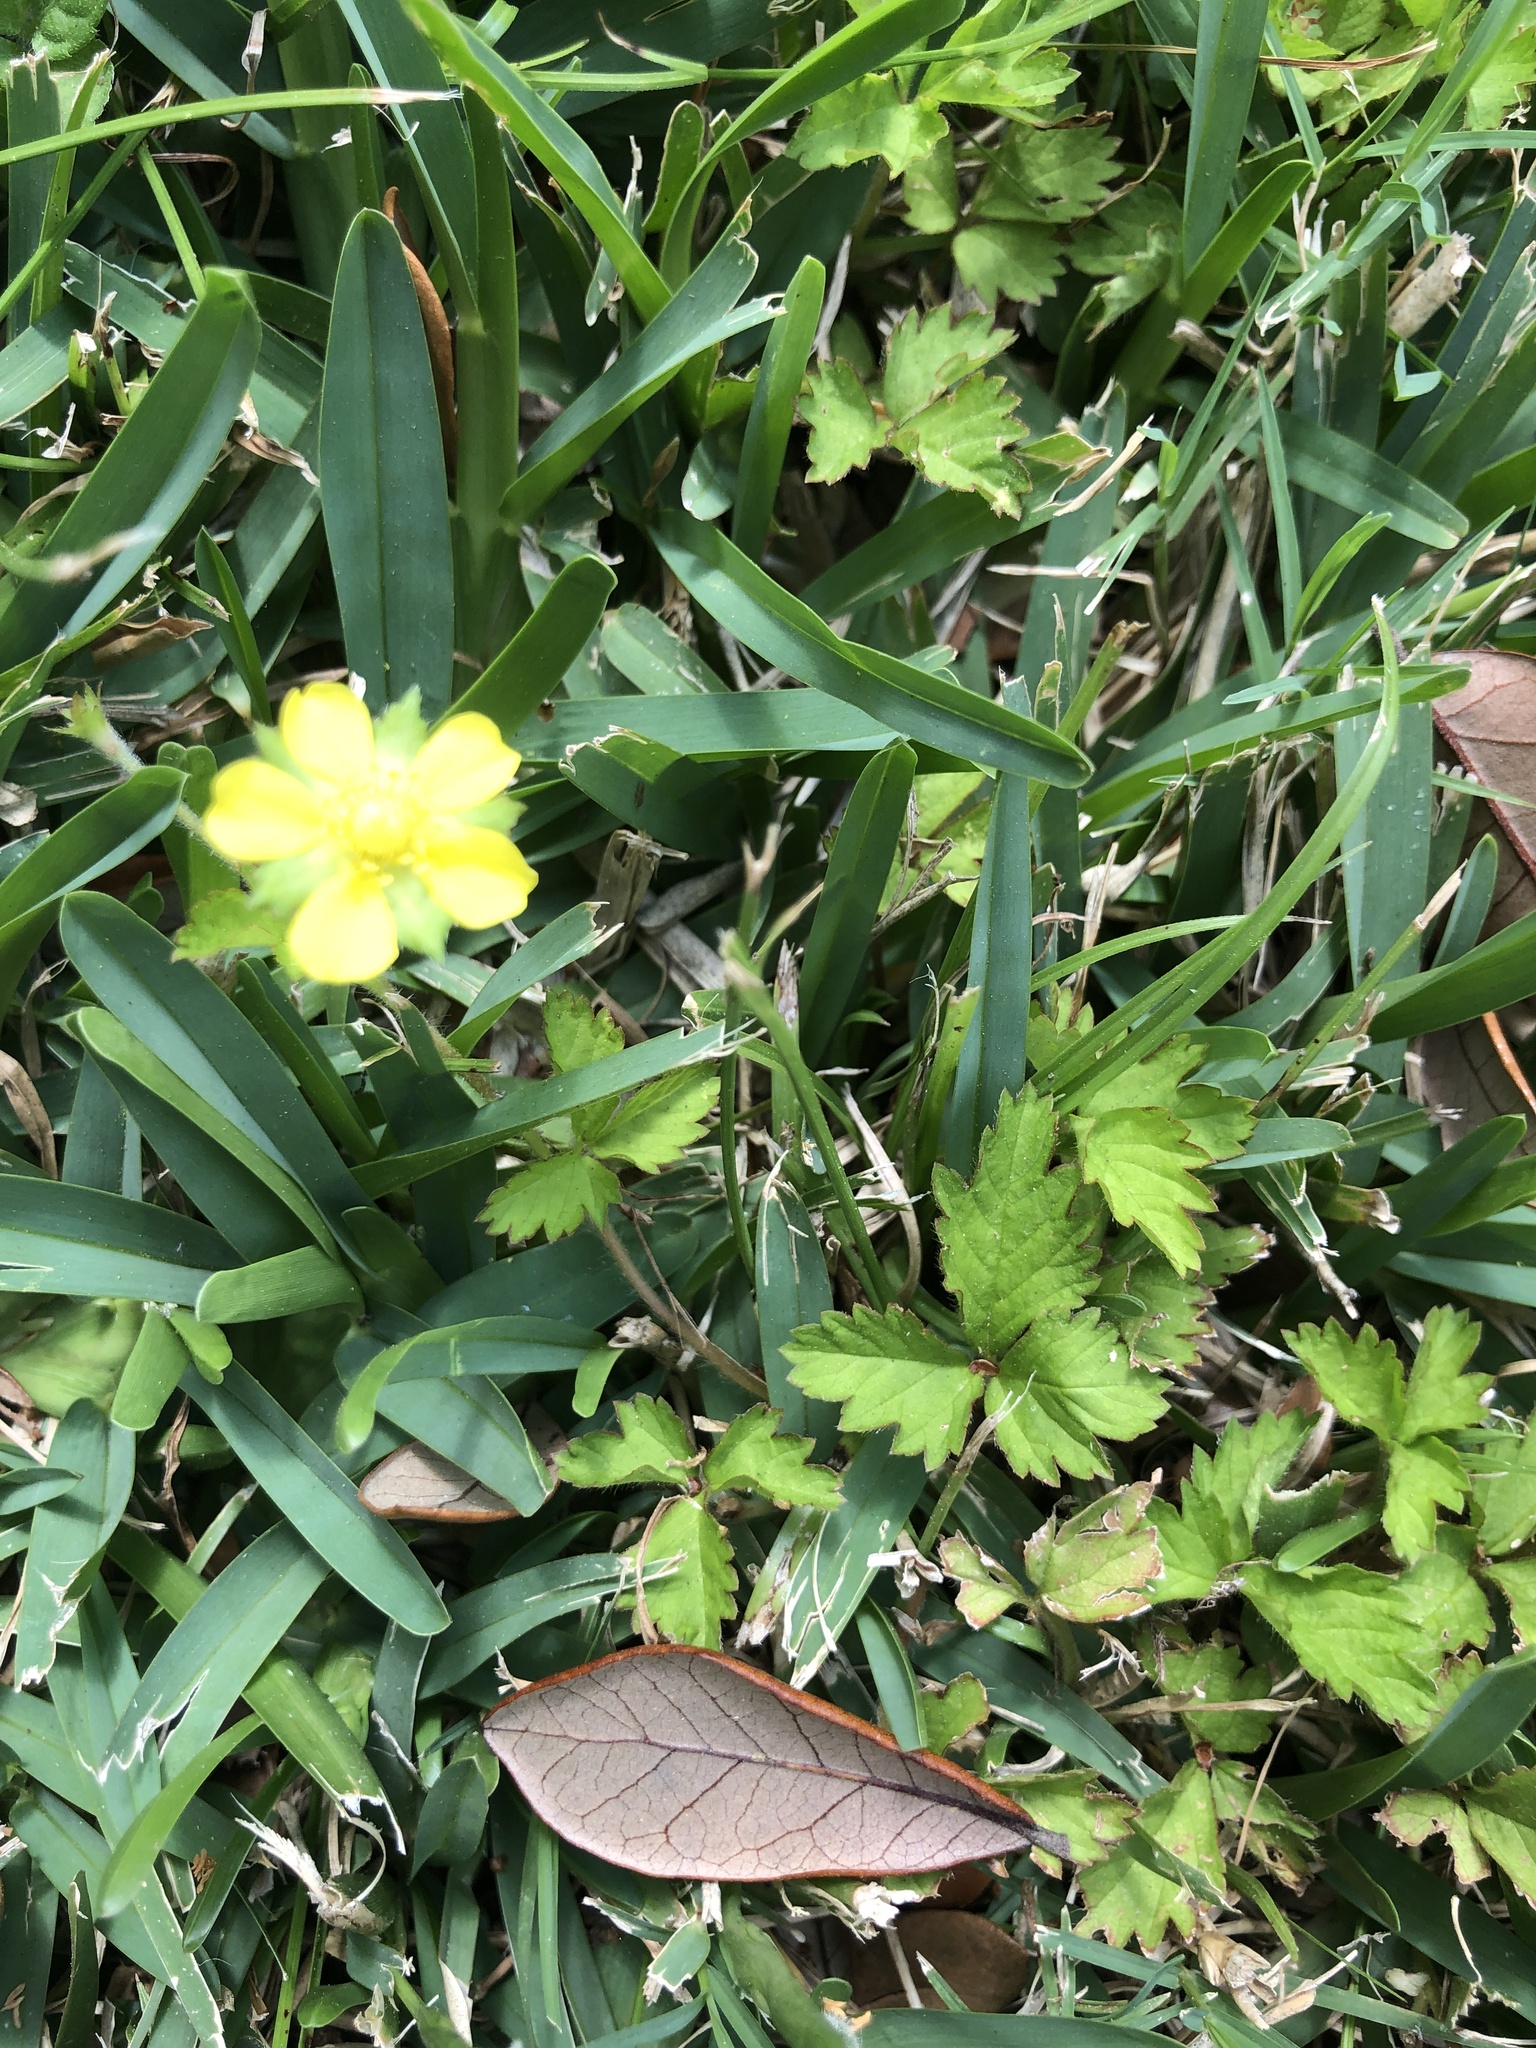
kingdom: Plantae
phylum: Tracheophyta
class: Magnoliopsida
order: Rosales
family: Rosaceae
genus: Potentilla
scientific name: Potentilla indica
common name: Yellow-flowered strawberry
